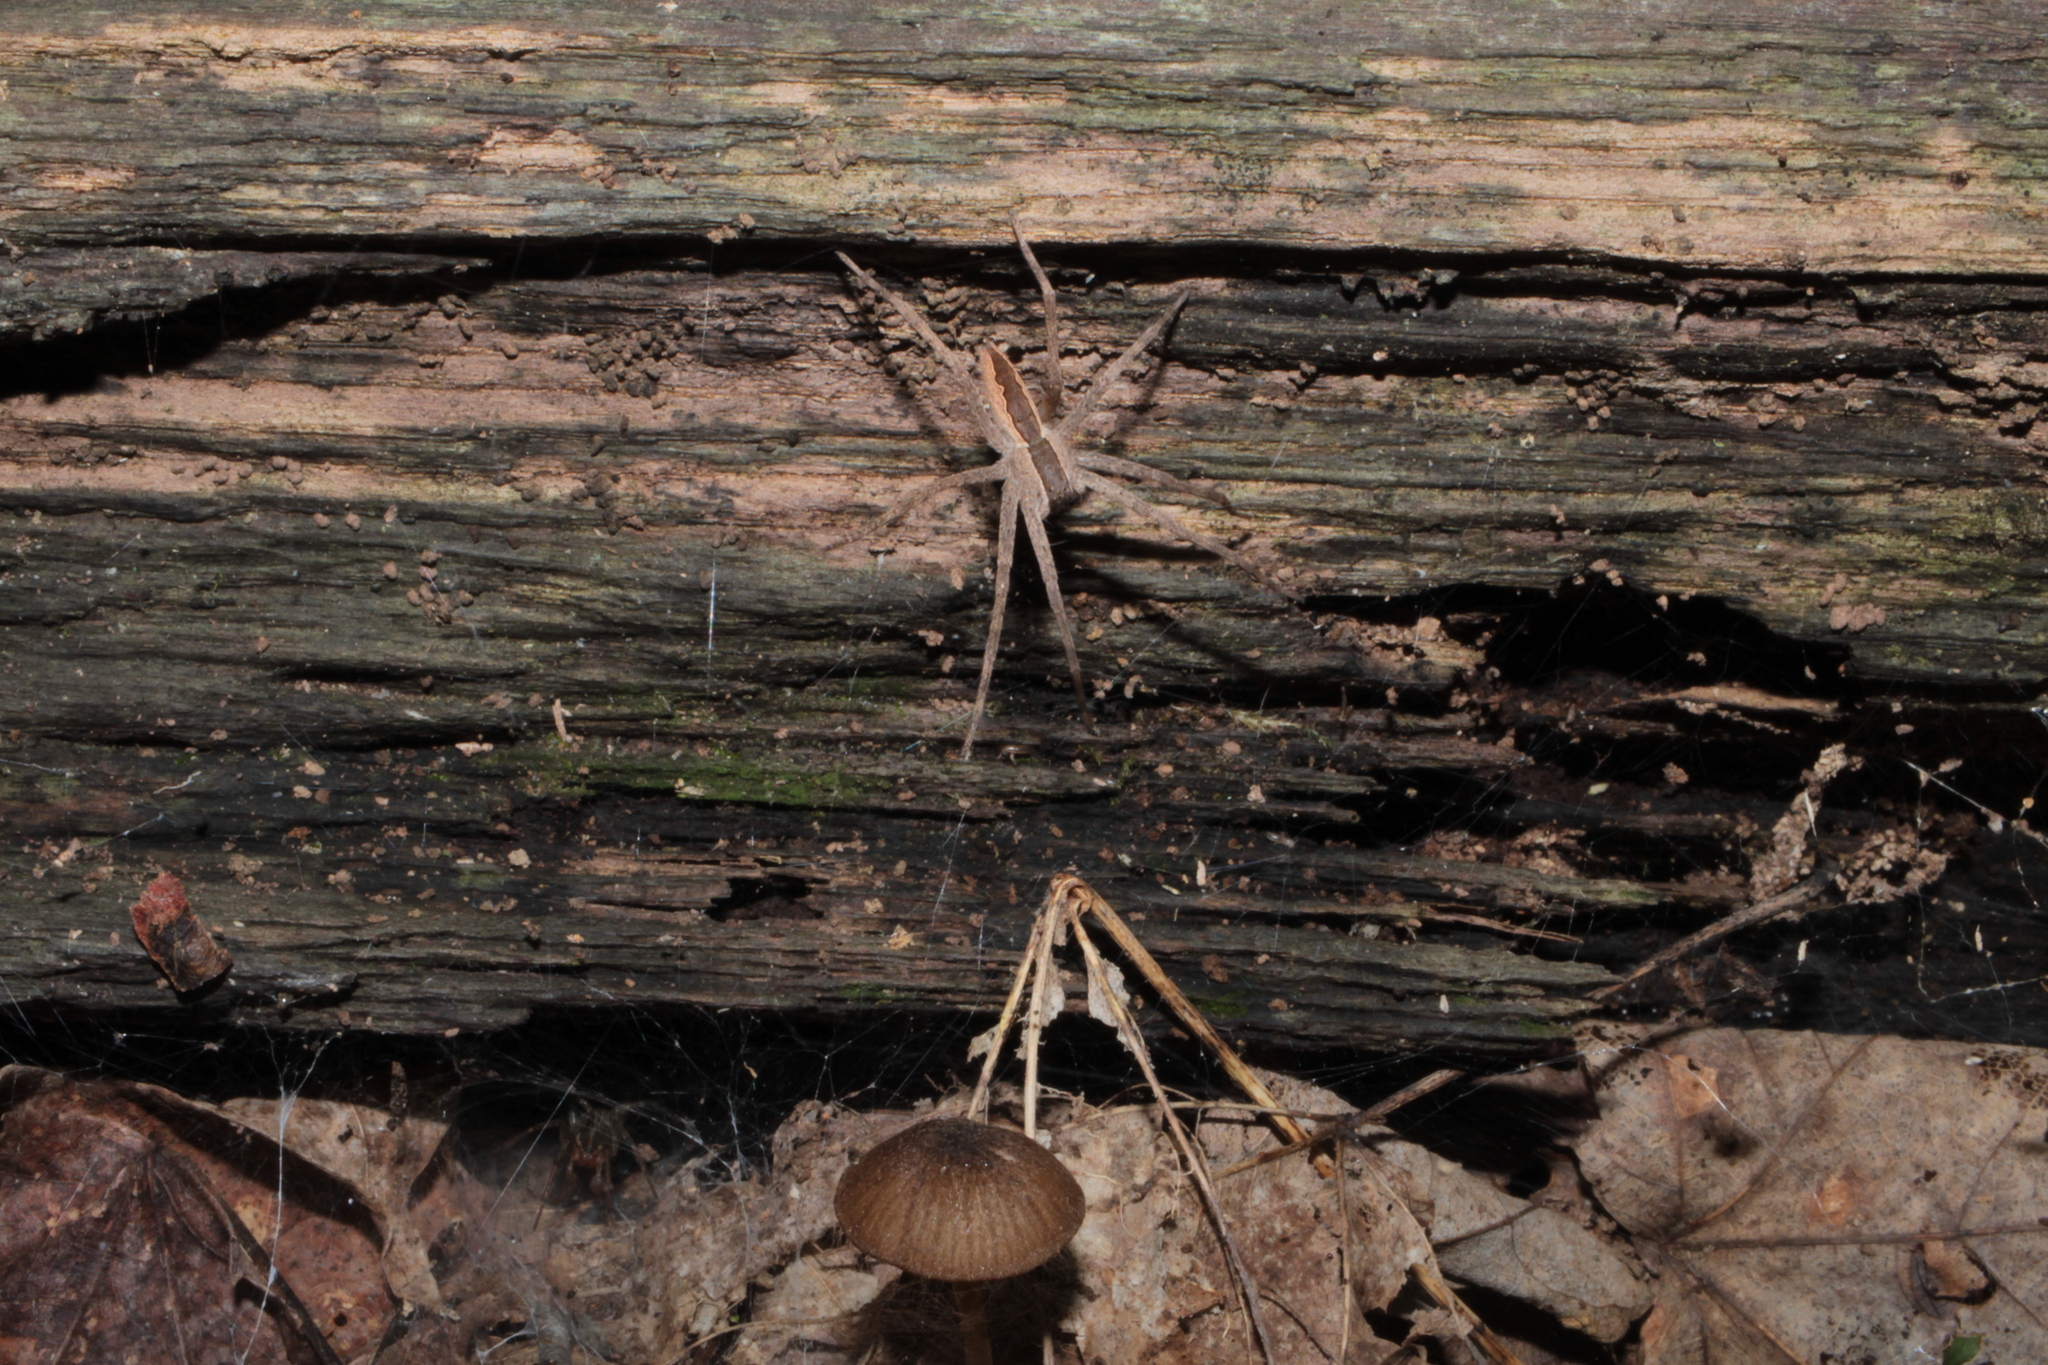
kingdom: Animalia
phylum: Arthropoda
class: Arachnida
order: Araneae
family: Pisauridae
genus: Pisaurina
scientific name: Pisaurina mira
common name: American nursery web spider
